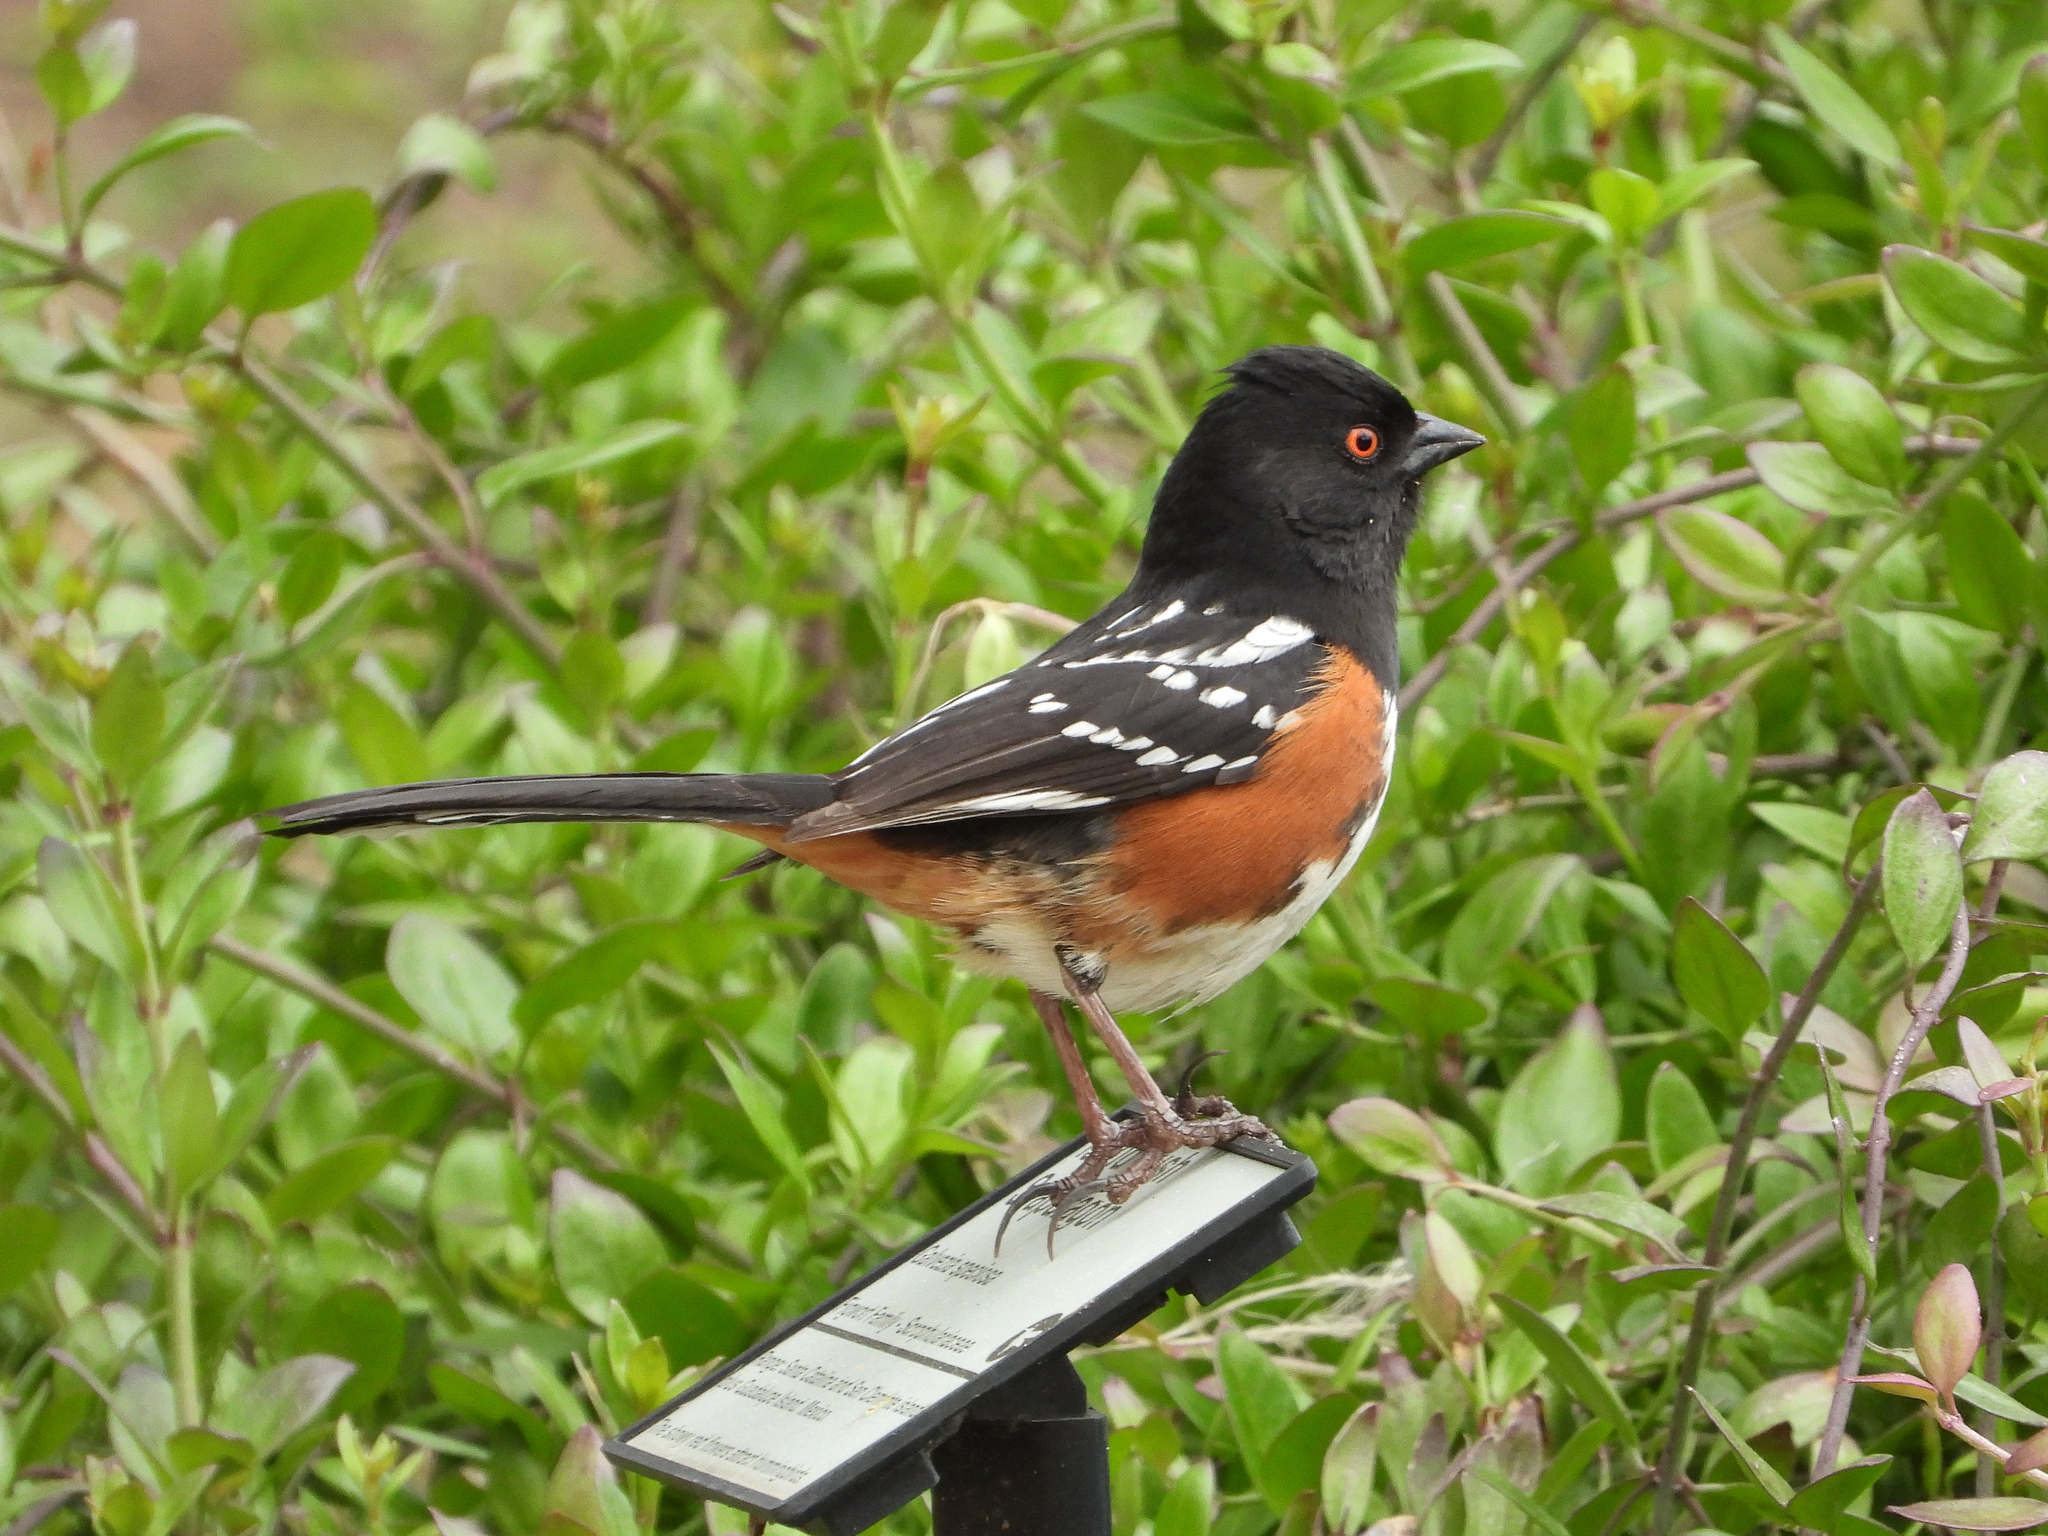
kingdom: Animalia
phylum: Chordata
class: Aves
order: Passeriformes
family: Passerellidae
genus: Pipilo
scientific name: Pipilo maculatus
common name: Spotted towhee
